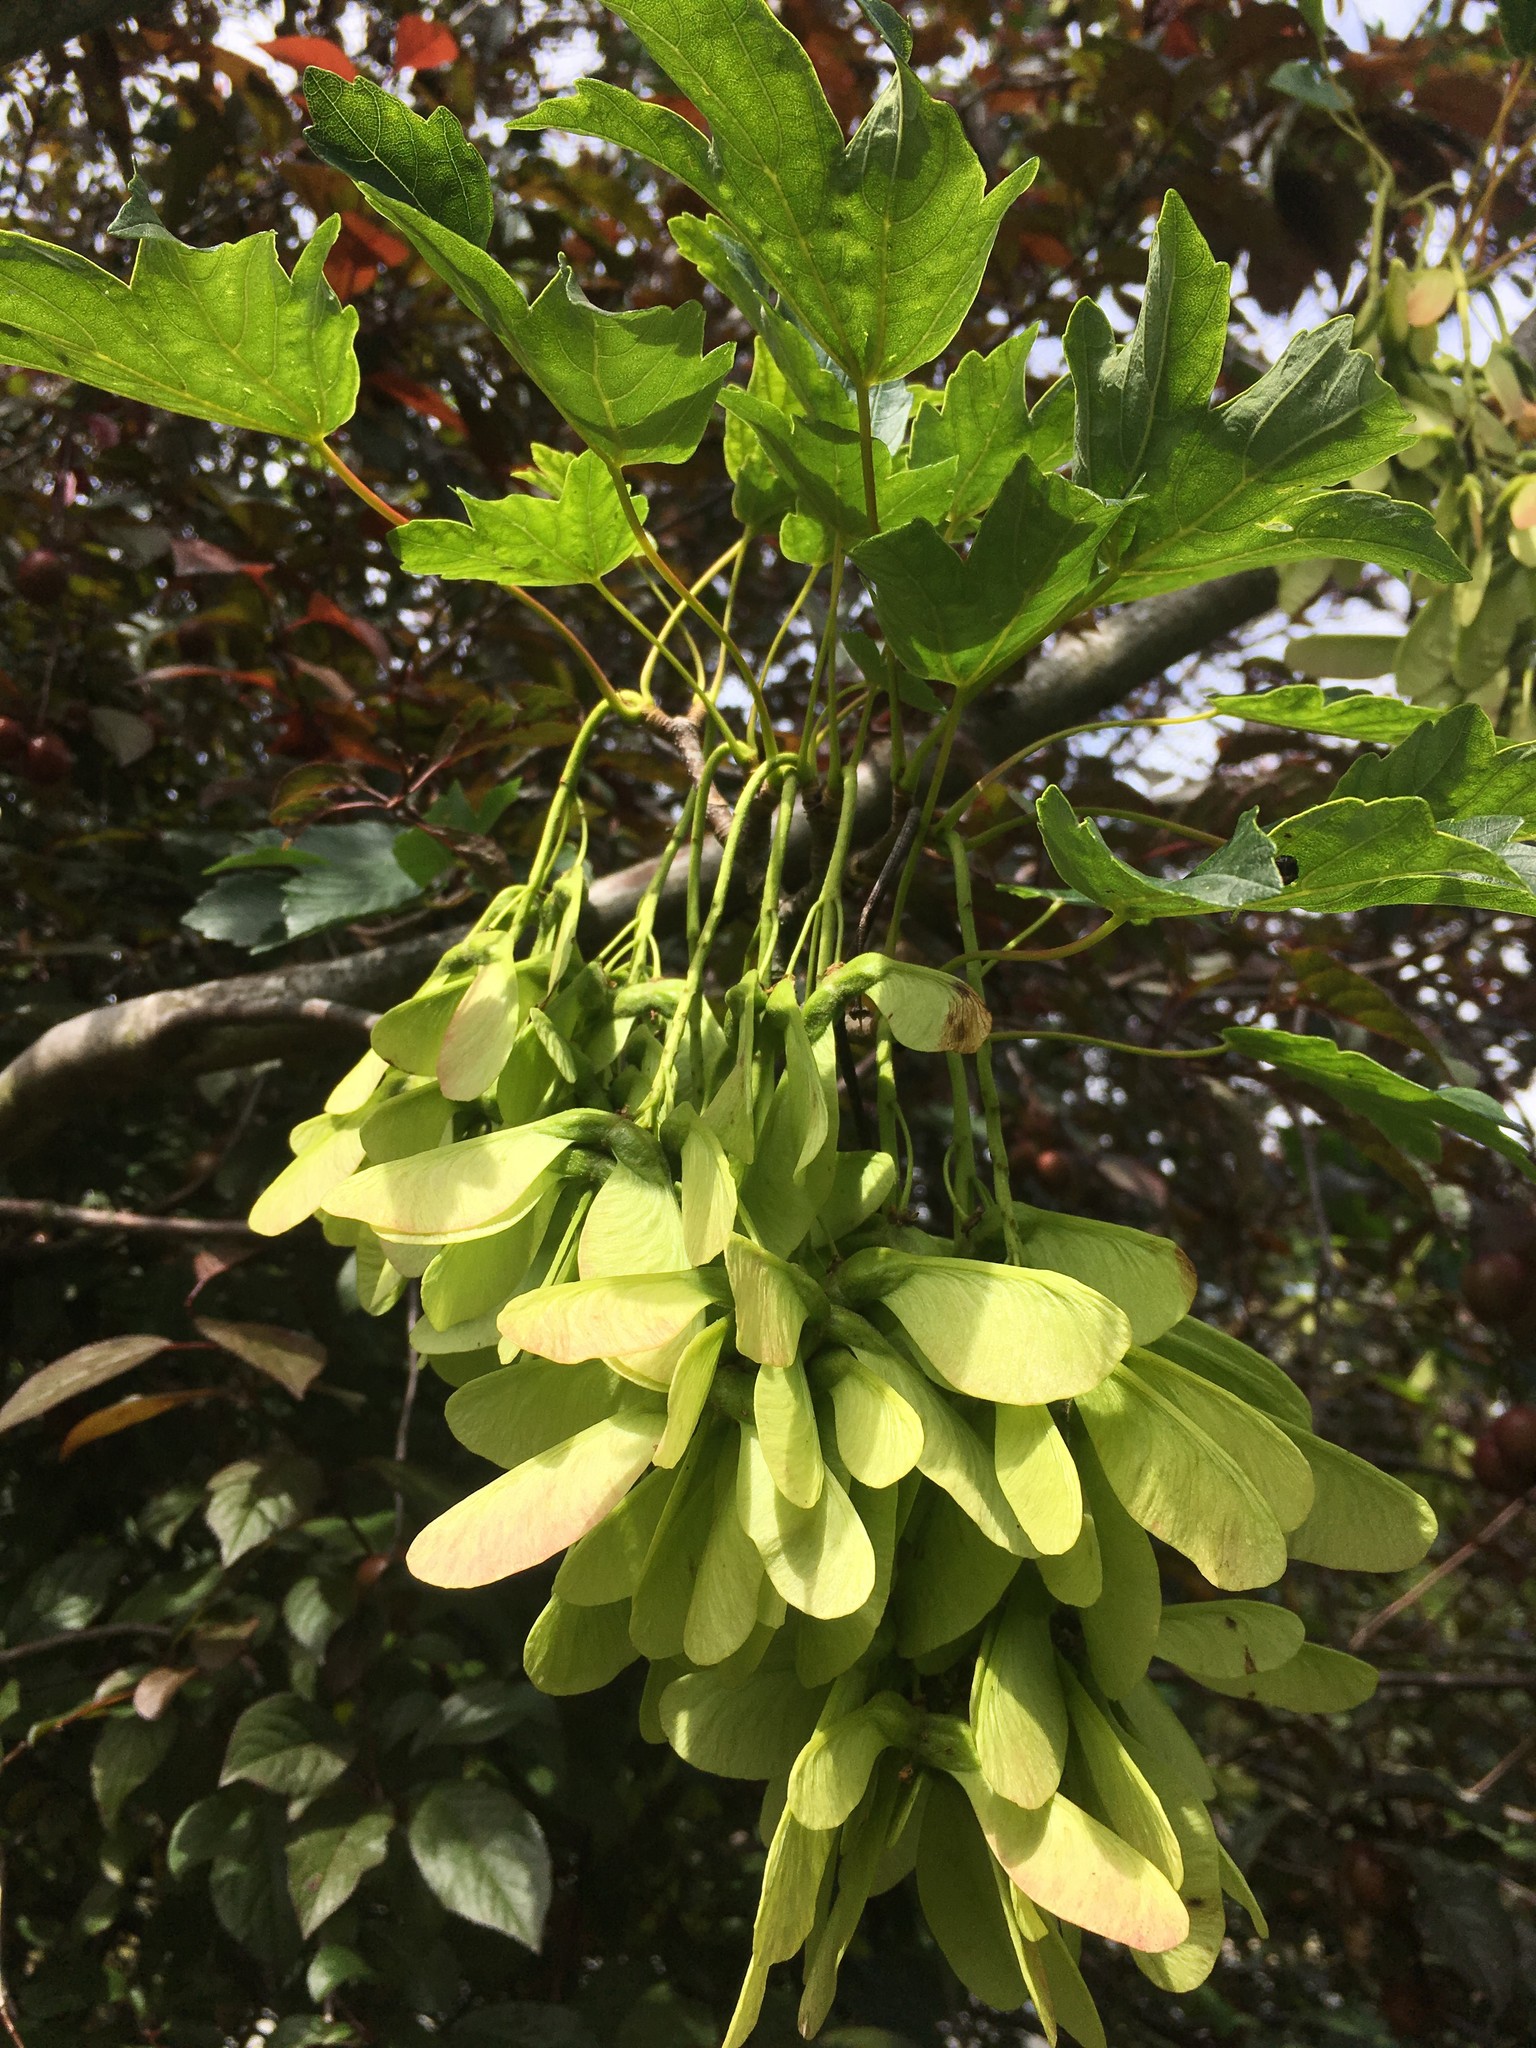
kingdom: Plantae
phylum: Tracheophyta
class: Magnoliopsida
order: Sapindales
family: Sapindaceae
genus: Acer
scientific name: Acer pseudoplatanus
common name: Sycamore
